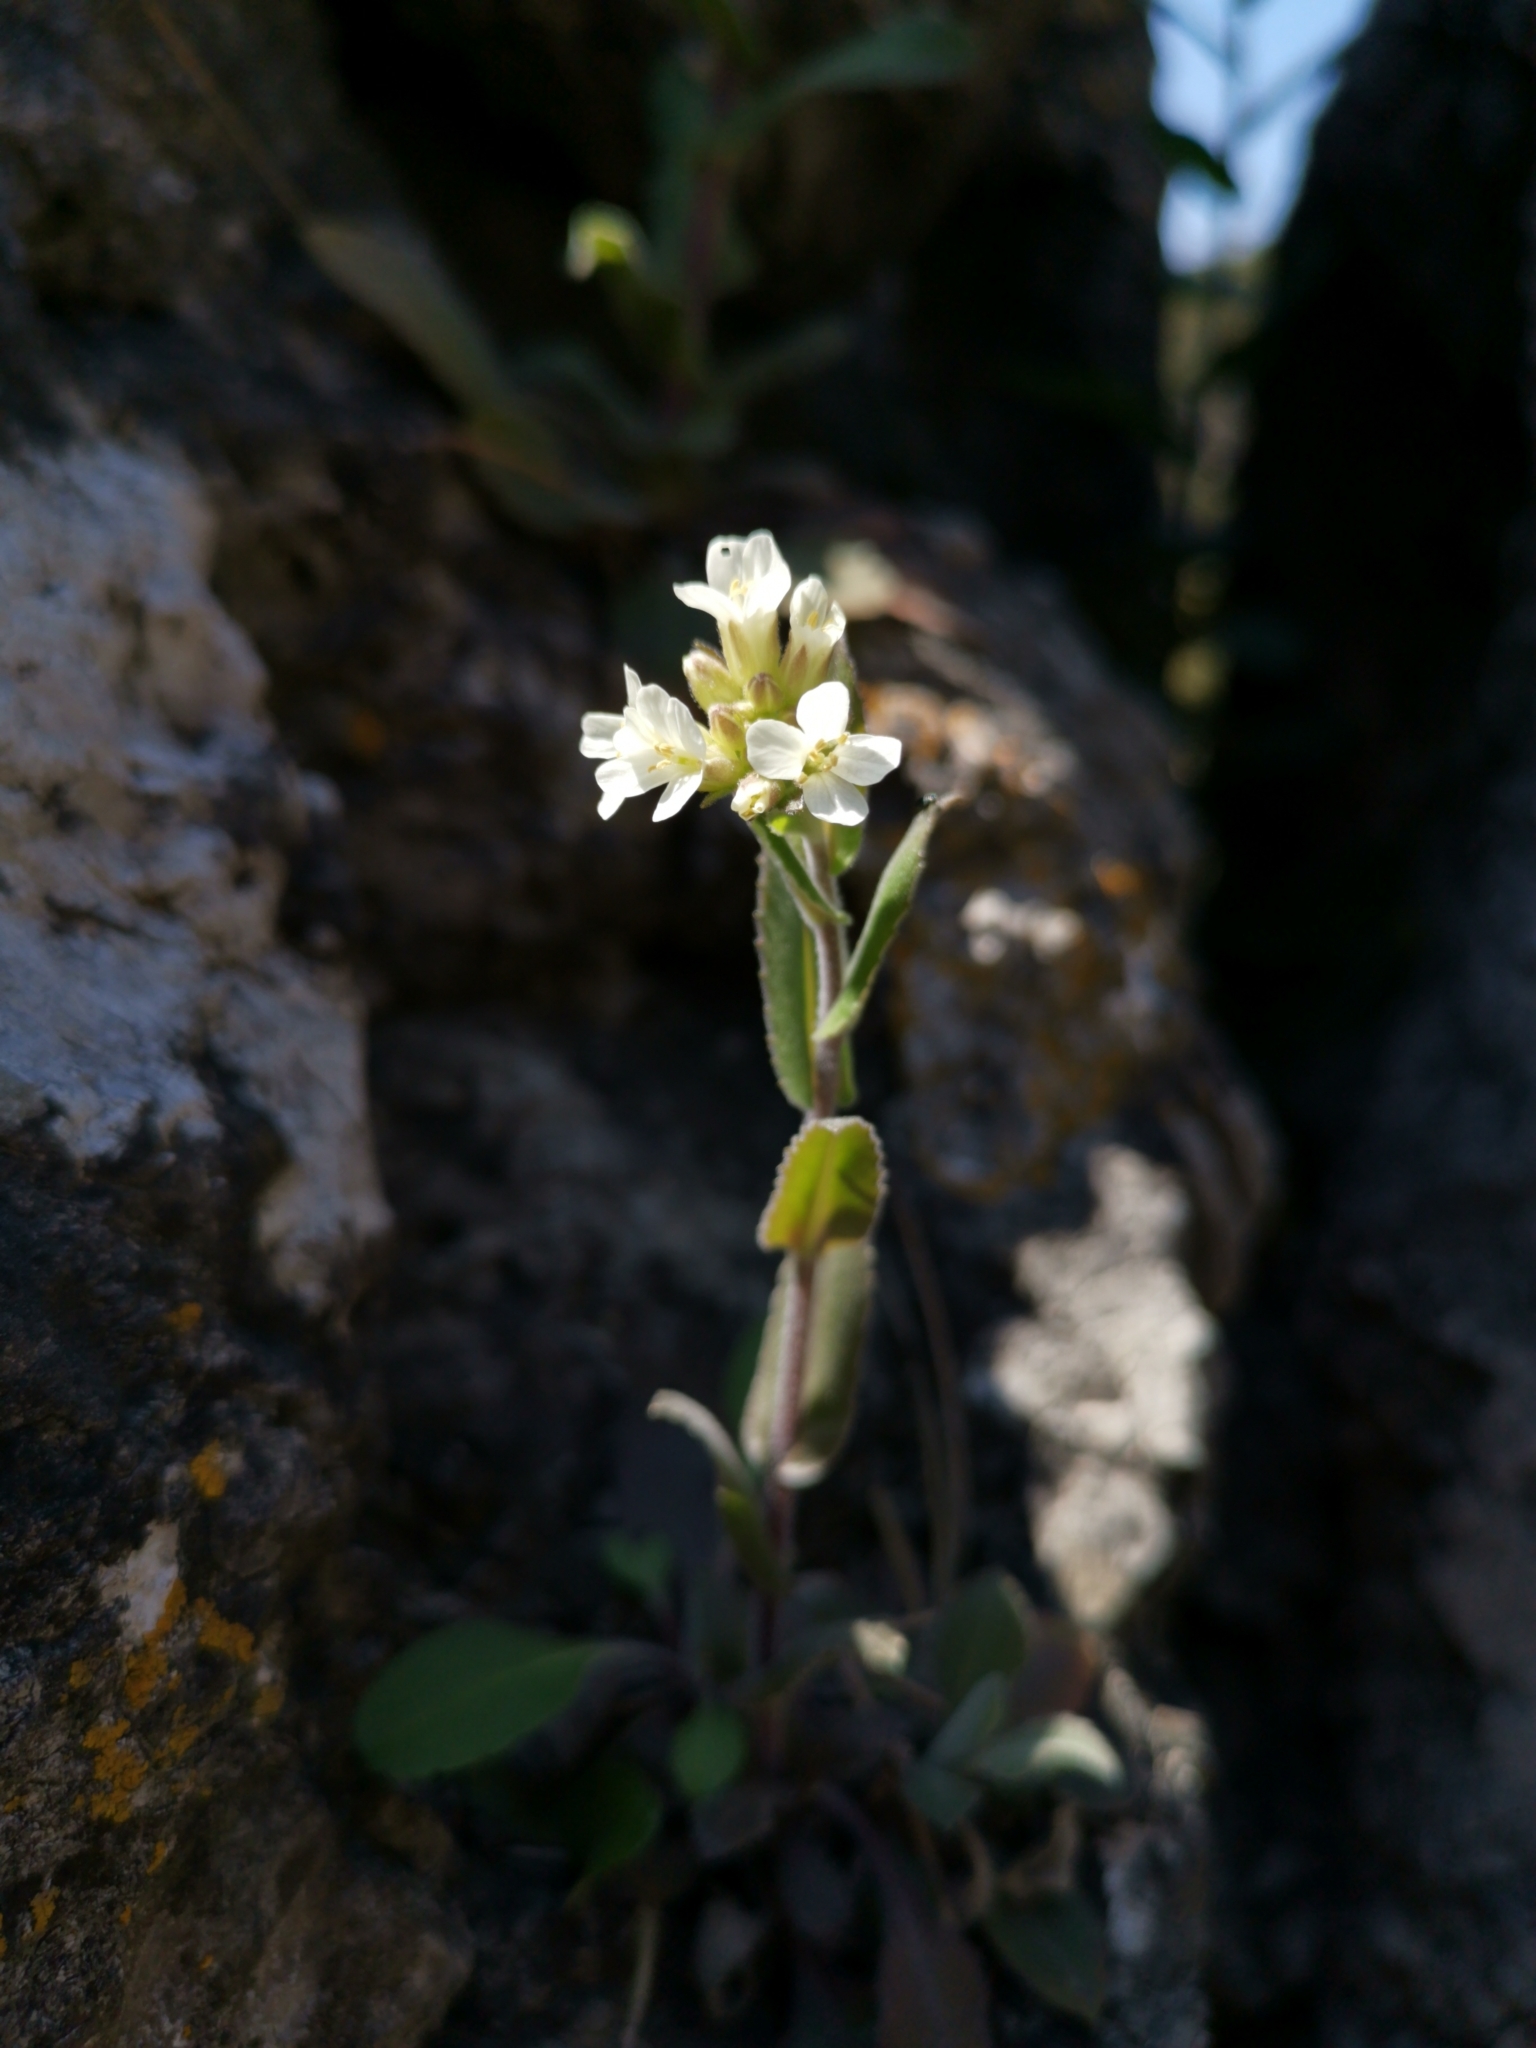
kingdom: Plantae
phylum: Tracheophyta
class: Magnoliopsida
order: Brassicales
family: Brassicaceae
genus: Pseudoturritis
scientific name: Pseudoturritis turrita
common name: Tower cress
